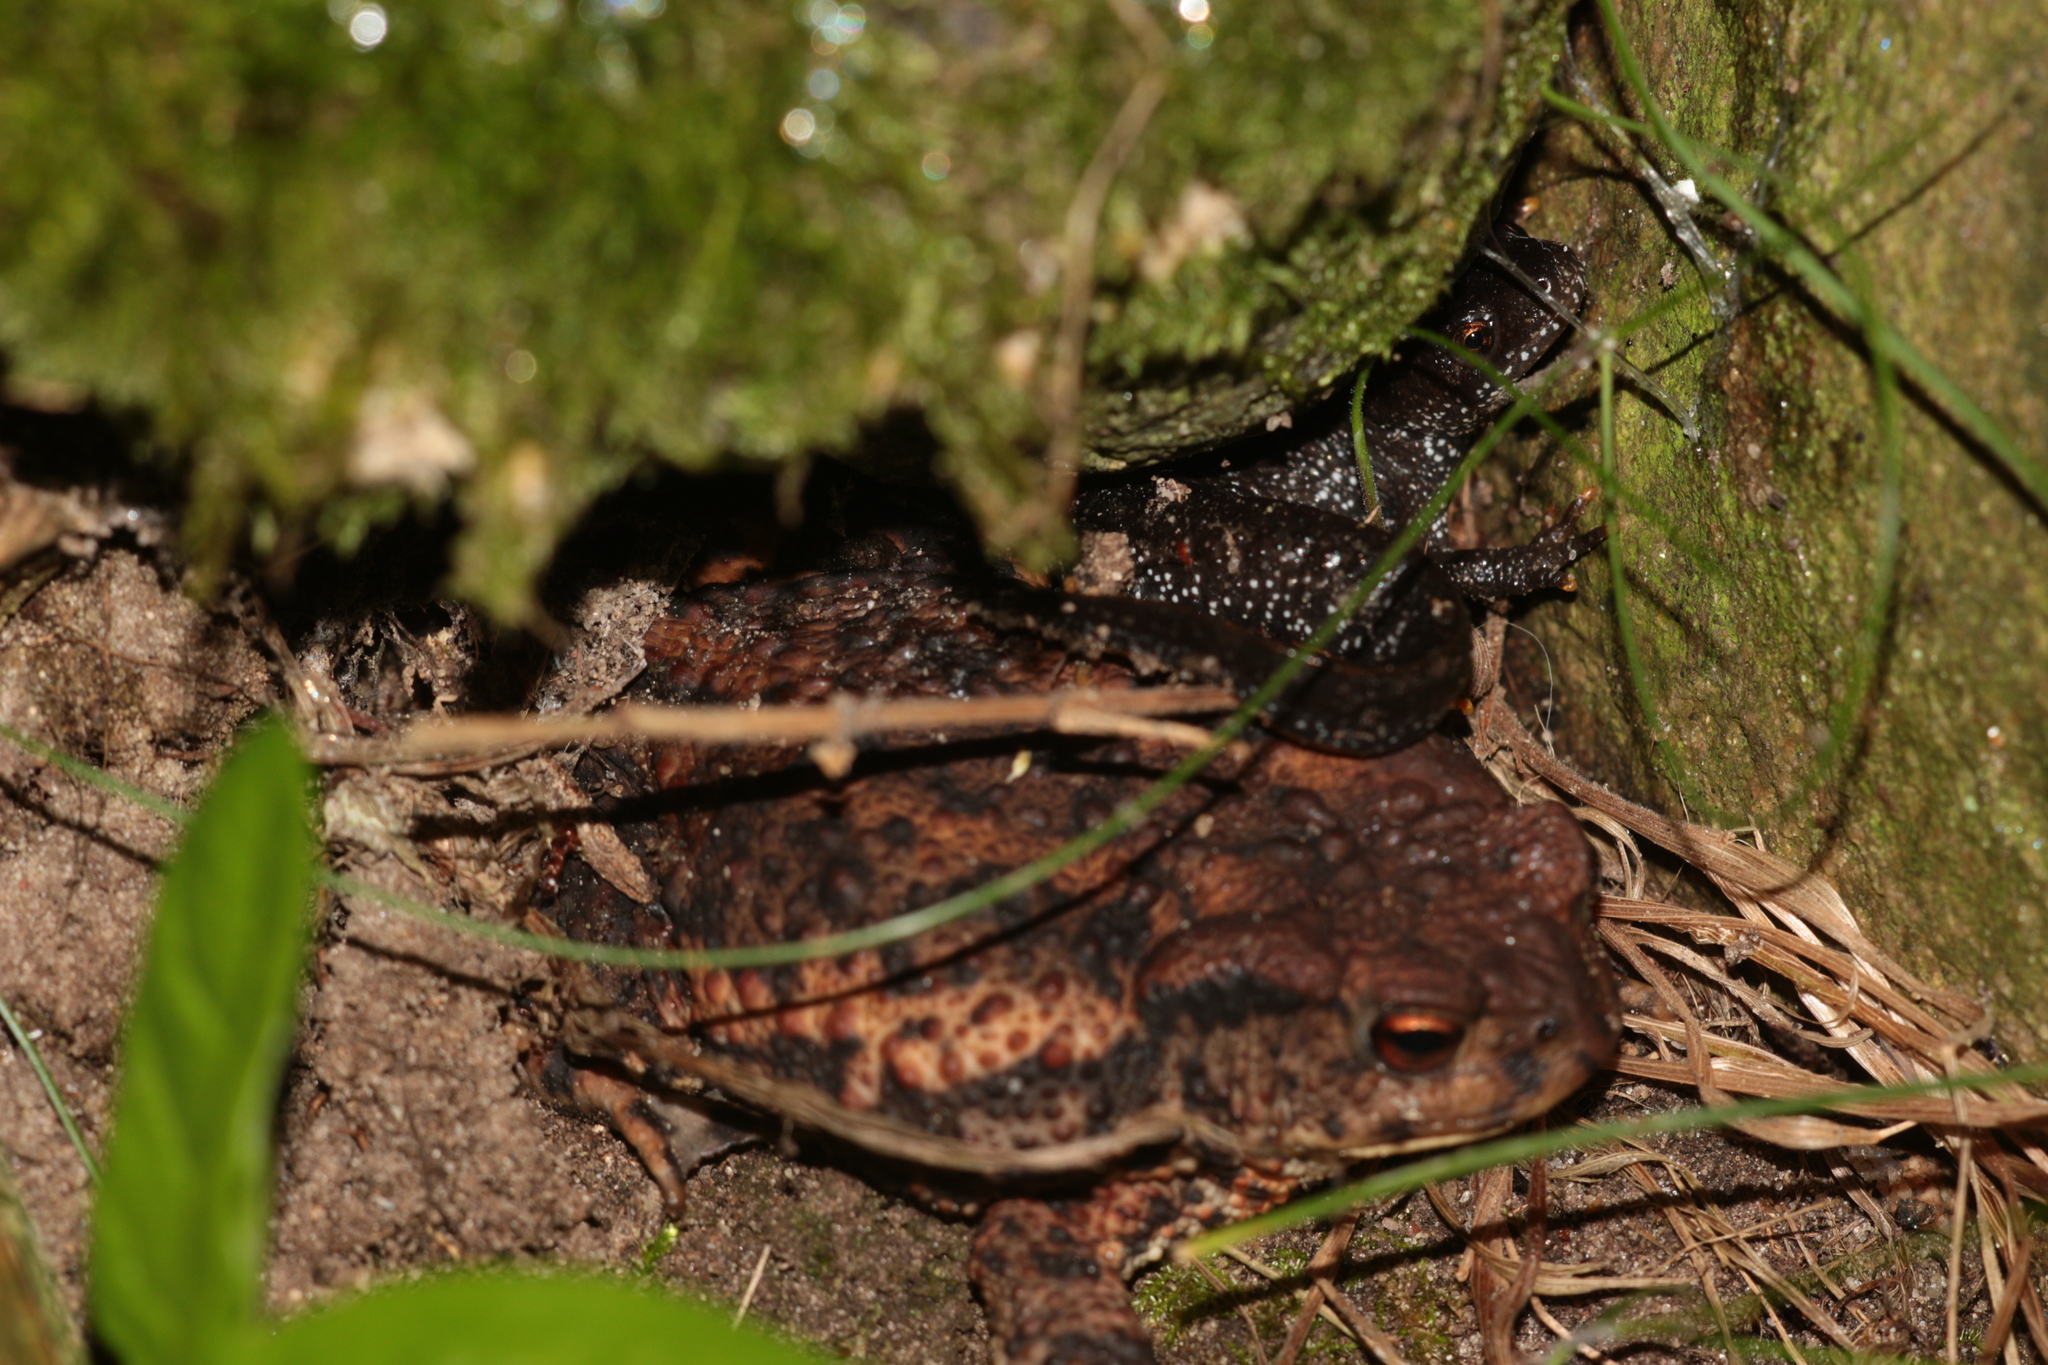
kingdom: Animalia
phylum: Chordata
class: Amphibia
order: Anura
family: Bufonidae
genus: Bufo
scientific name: Bufo bufo
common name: Common toad
